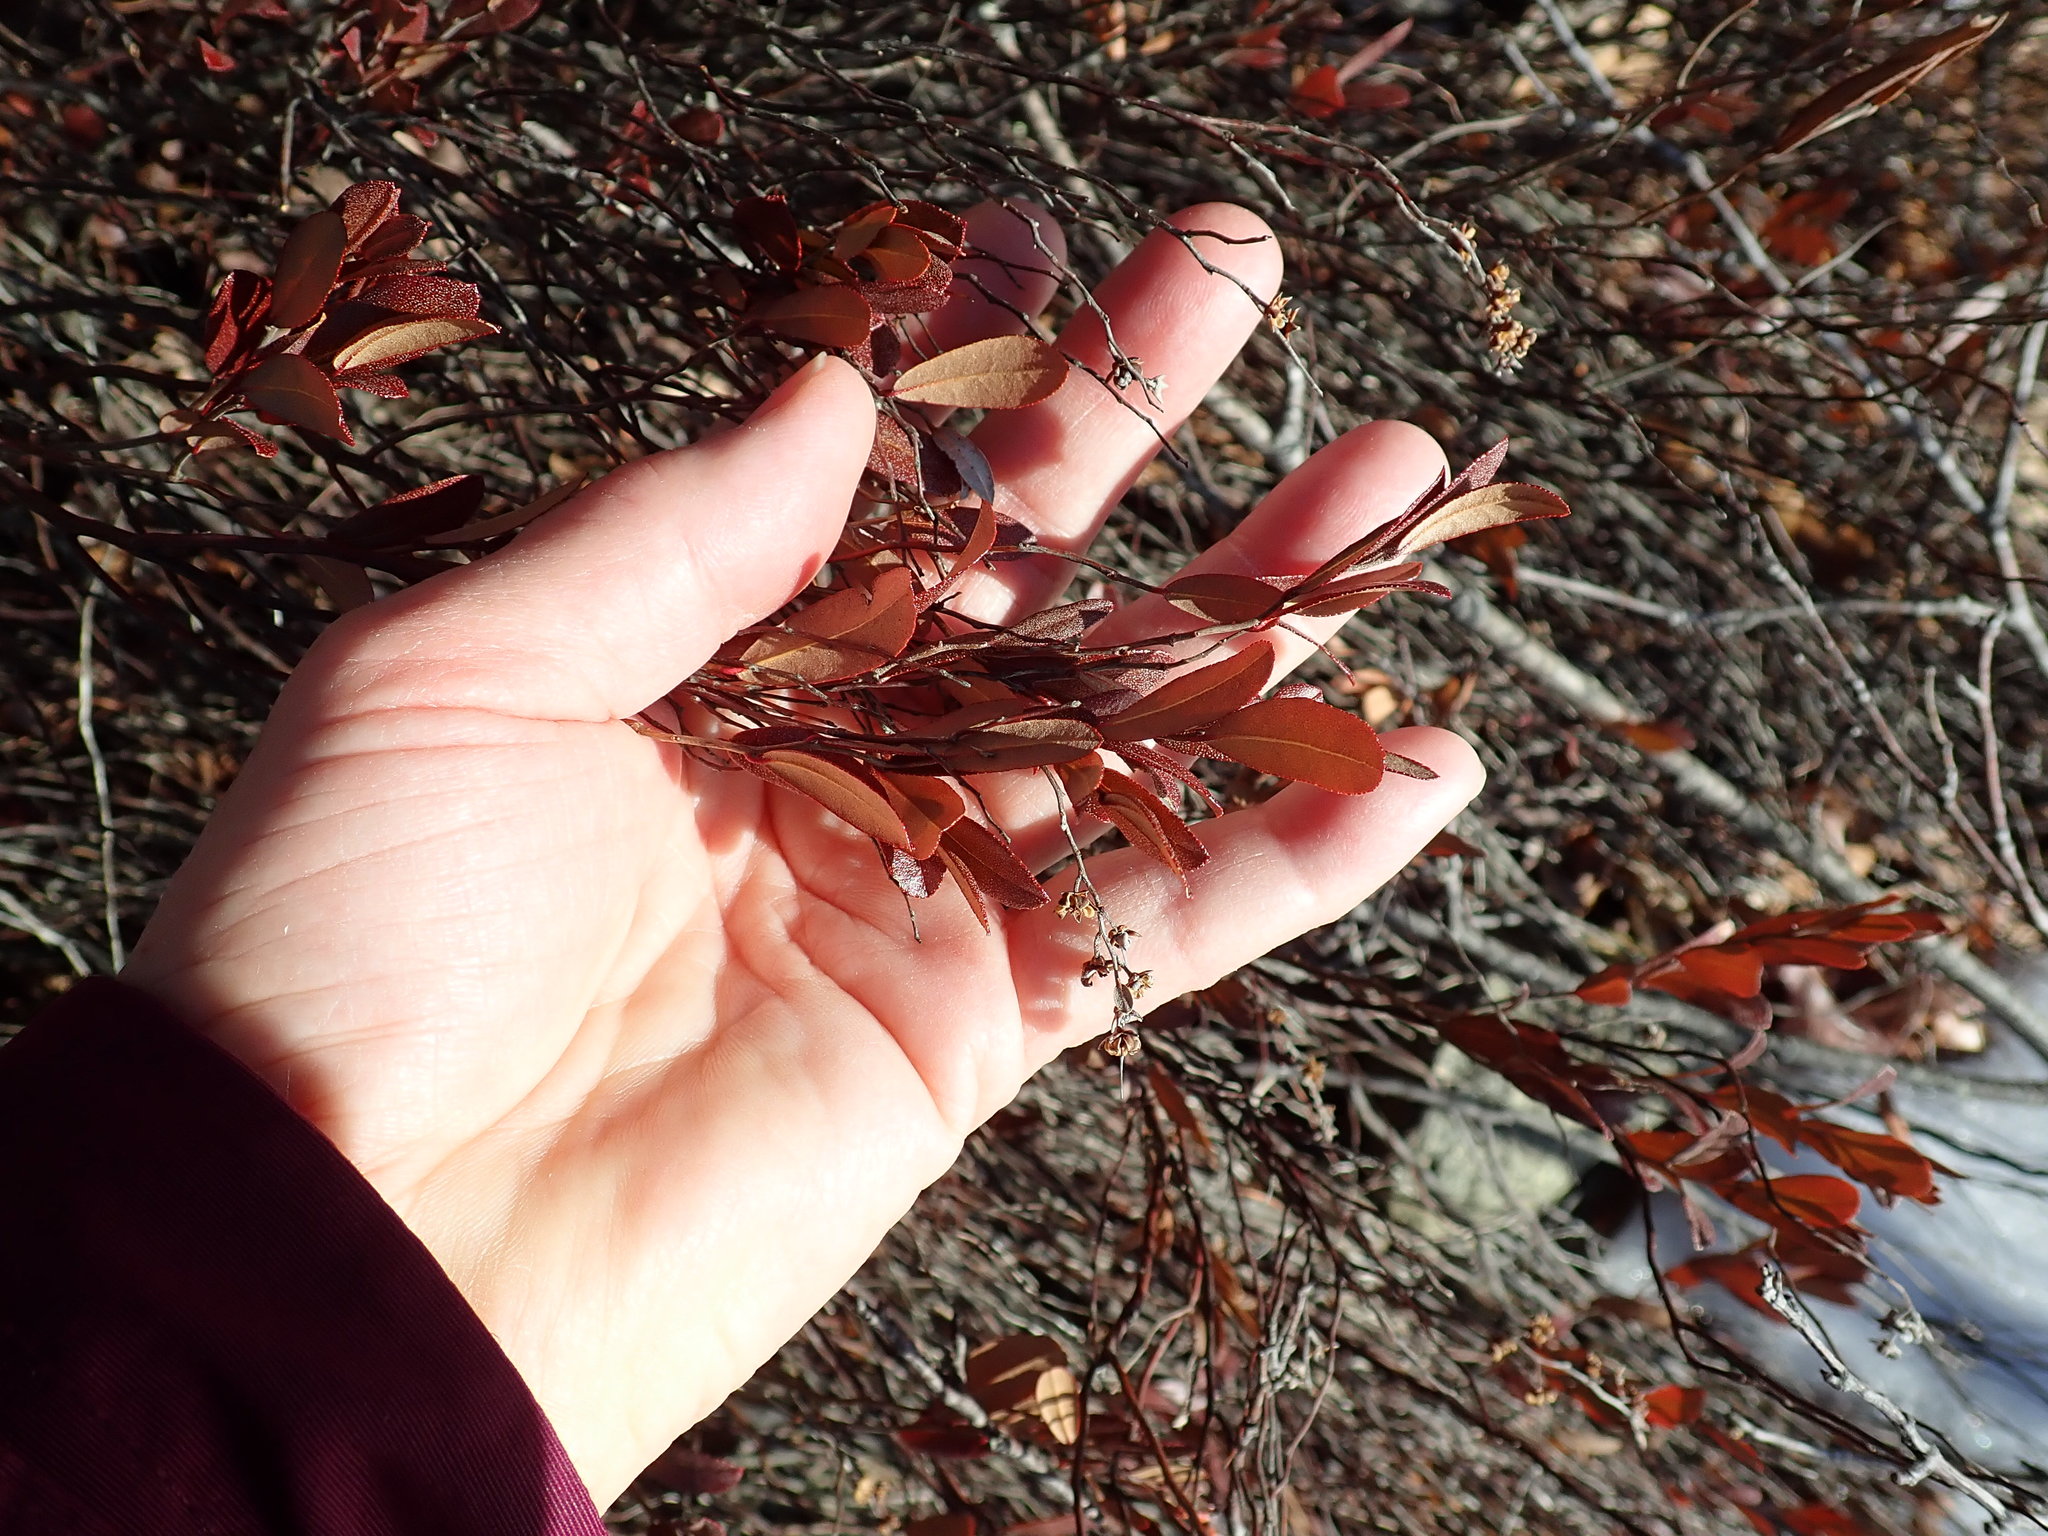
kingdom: Plantae
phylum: Tracheophyta
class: Magnoliopsida
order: Ericales
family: Ericaceae
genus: Chamaedaphne
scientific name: Chamaedaphne calyculata
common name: Leatherleaf
